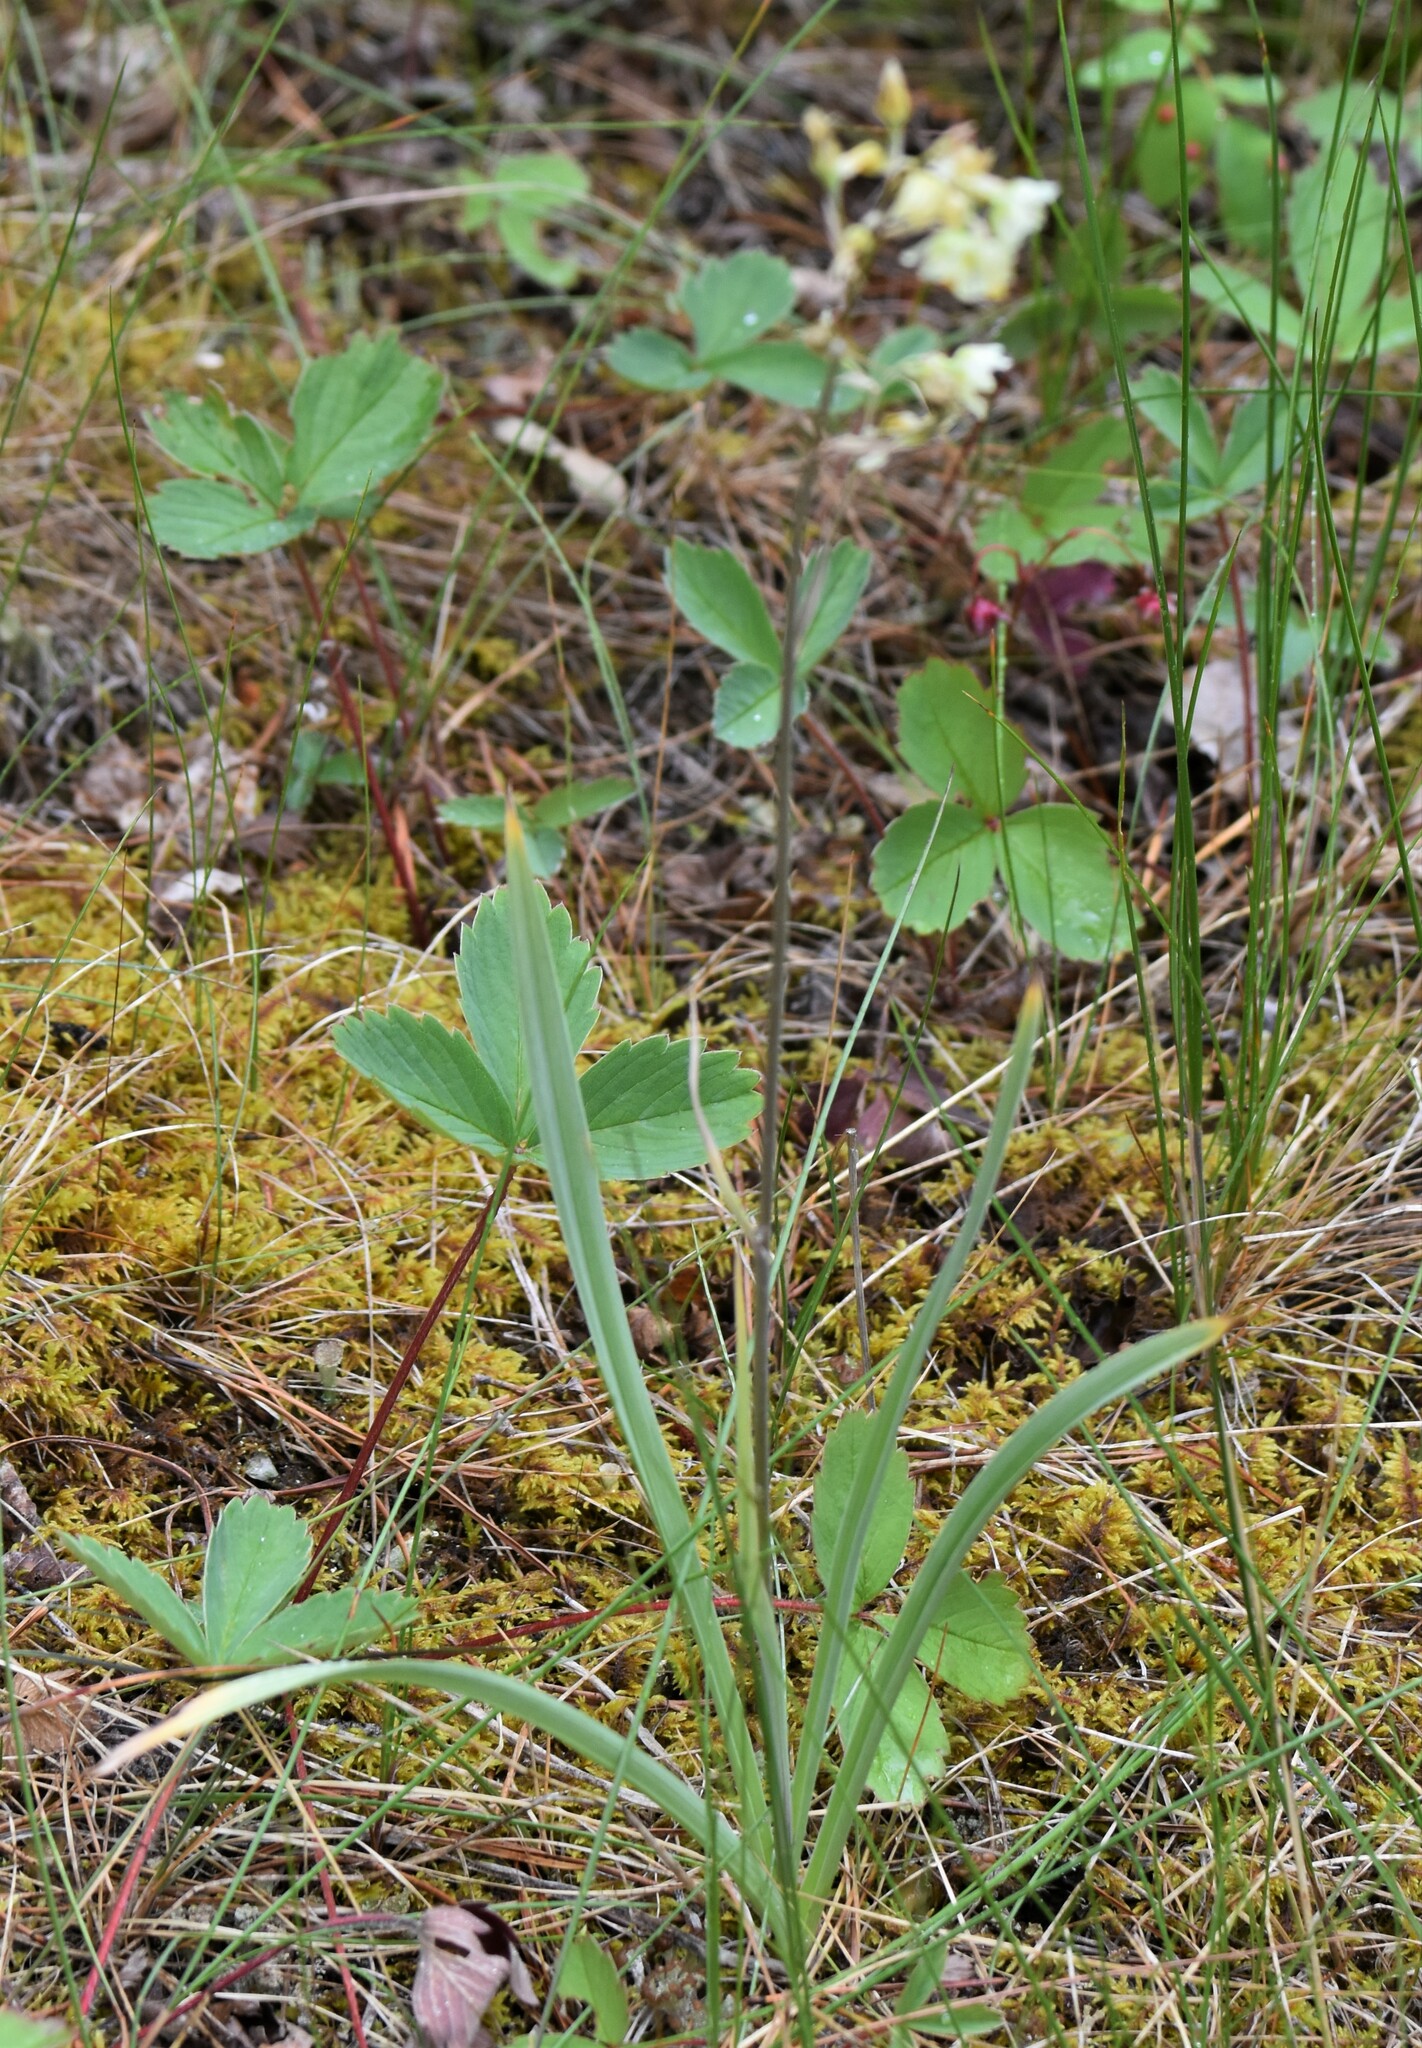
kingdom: Plantae
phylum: Tracheophyta
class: Liliopsida
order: Liliales
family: Melanthiaceae
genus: Anticlea
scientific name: Anticlea elegans
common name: Mountain death camas
